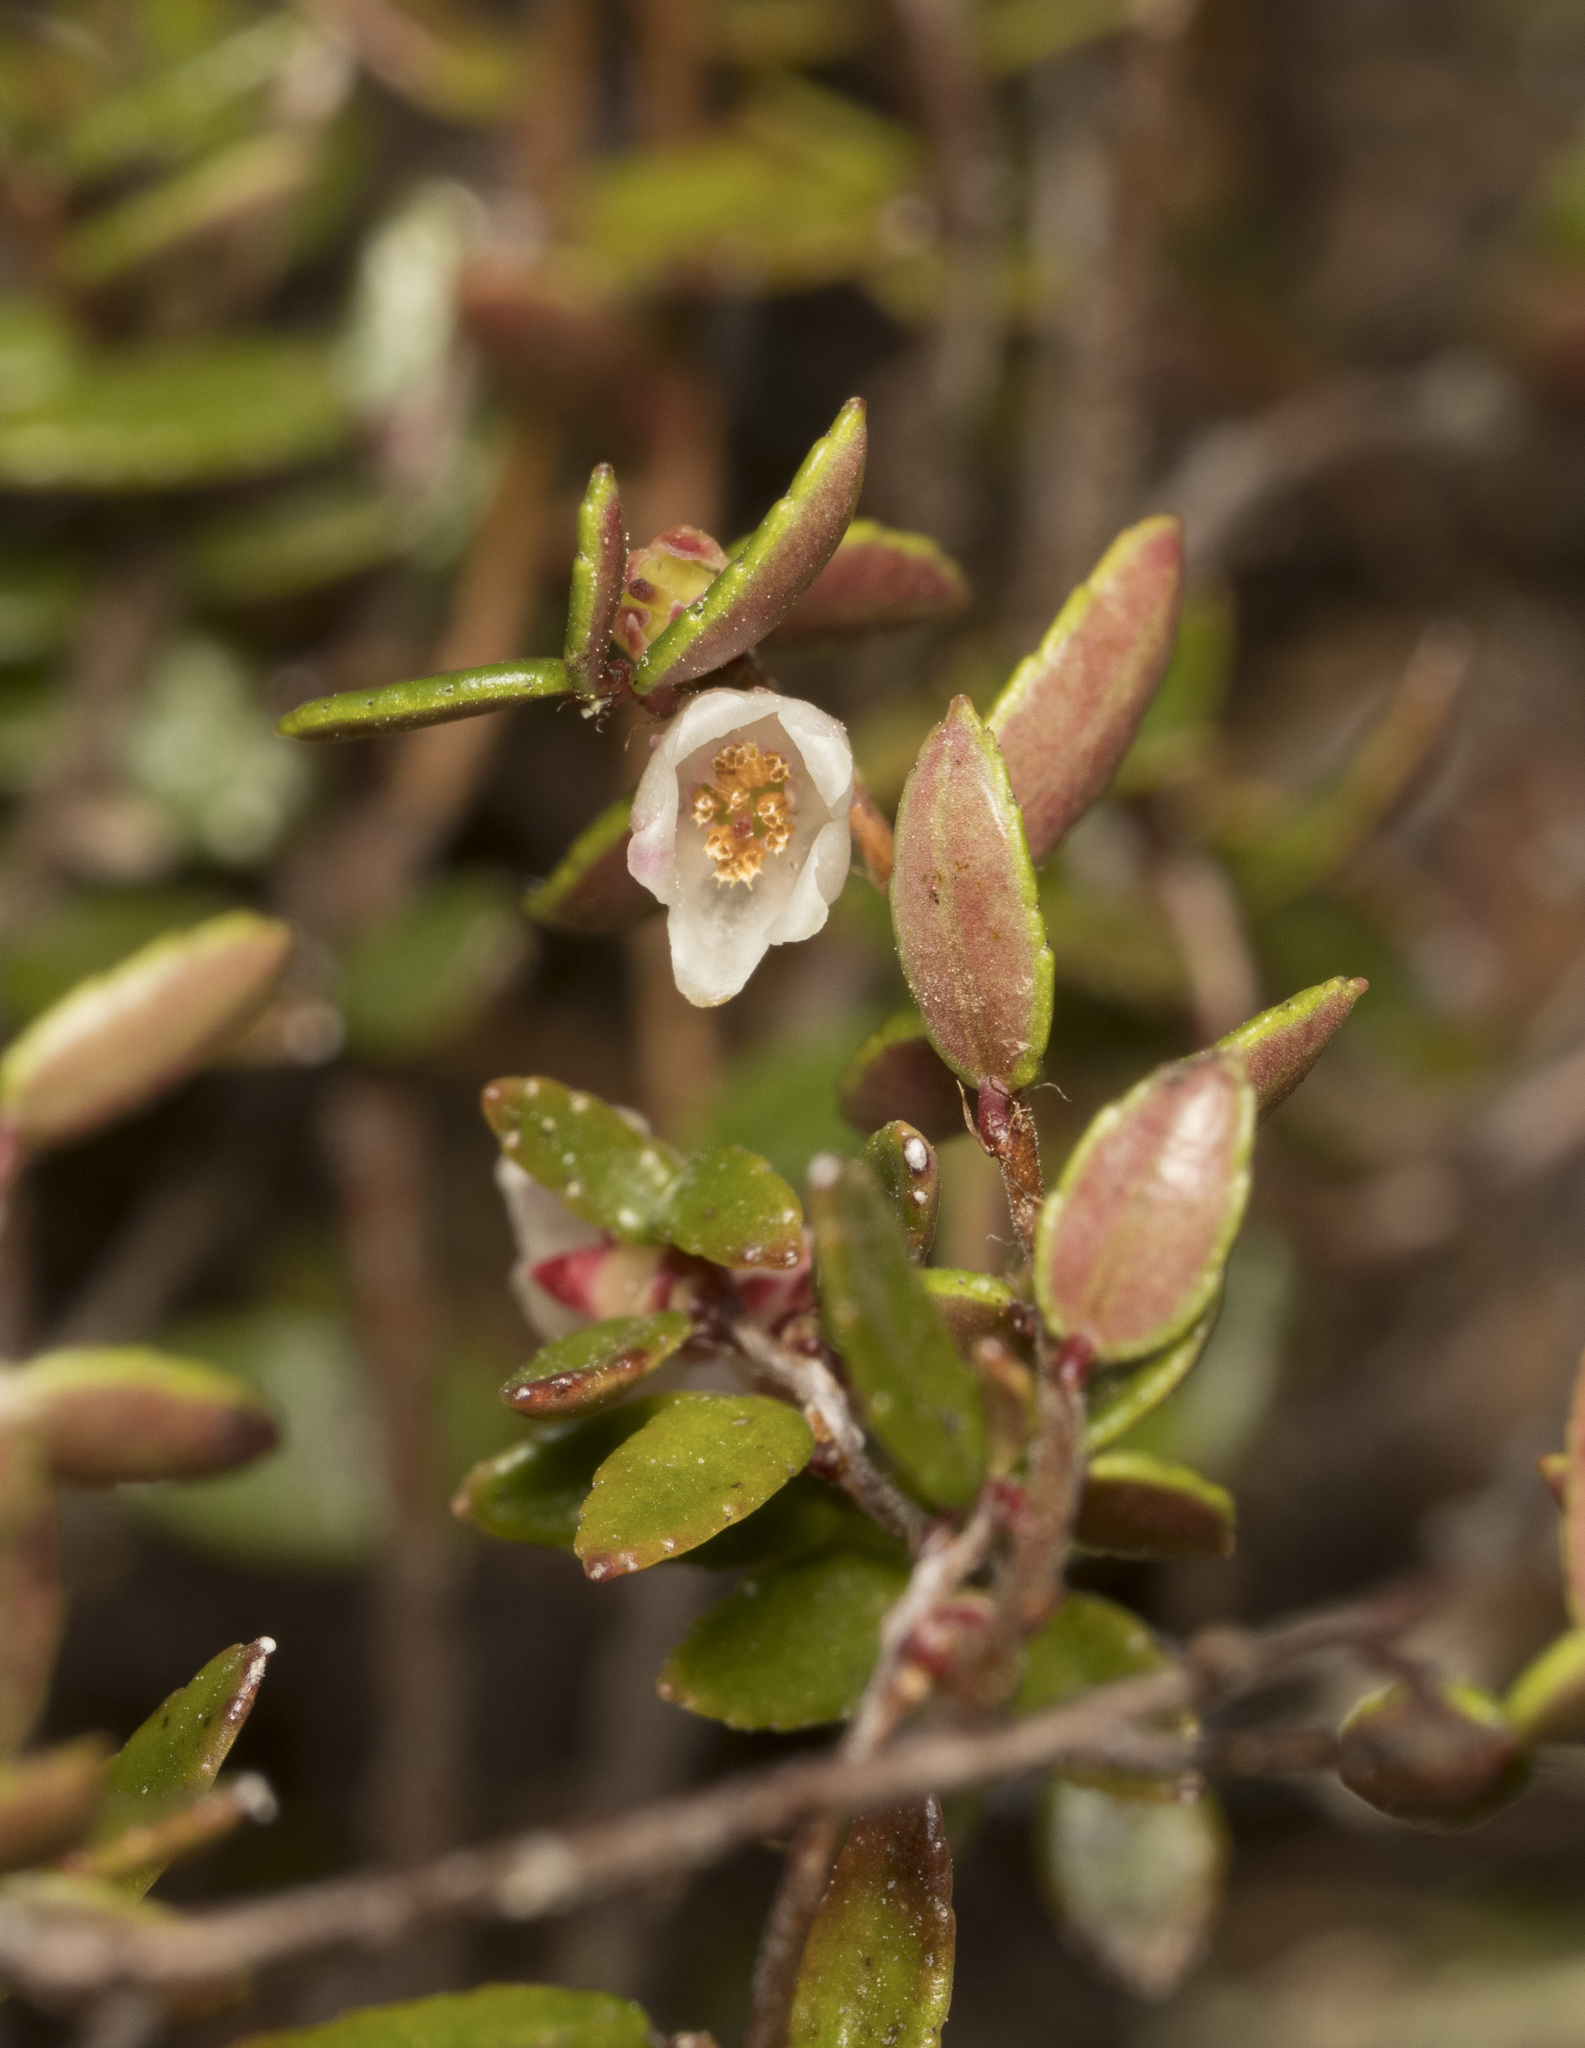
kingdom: Plantae
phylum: Tracheophyta
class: Magnoliopsida
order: Ericales
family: Ericaceae
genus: Gaultheria
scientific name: Gaultheria antarctica
